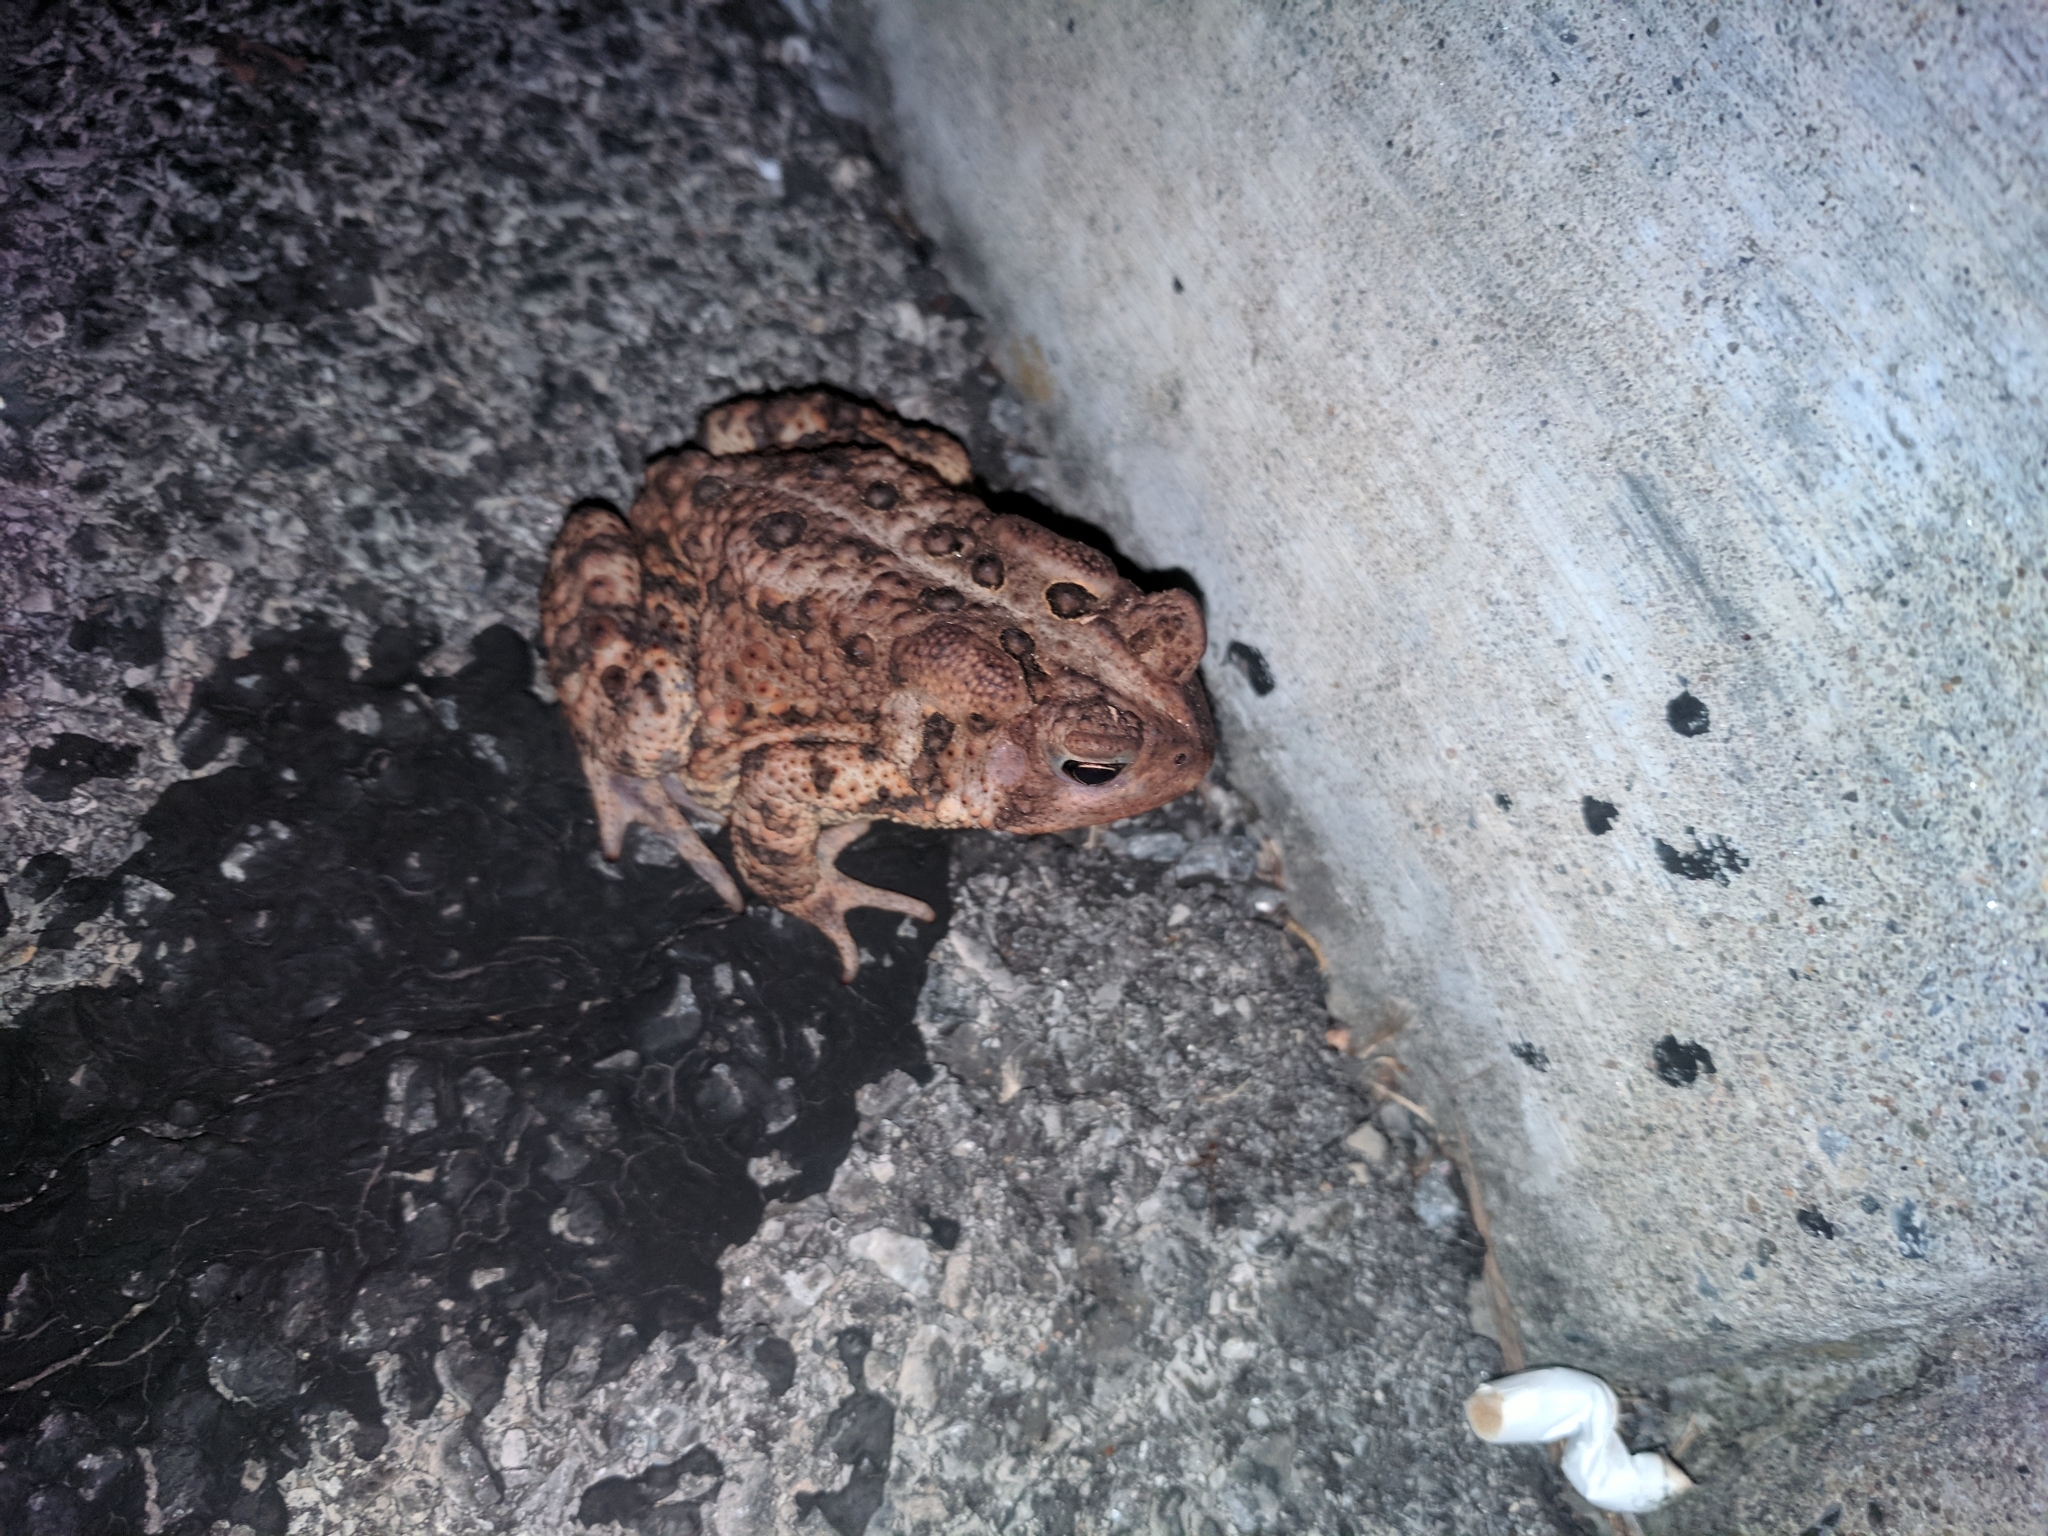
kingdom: Animalia
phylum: Chordata
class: Amphibia
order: Anura
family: Bufonidae
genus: Anaxyrus
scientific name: Anaxyrus americanus
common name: American toad
